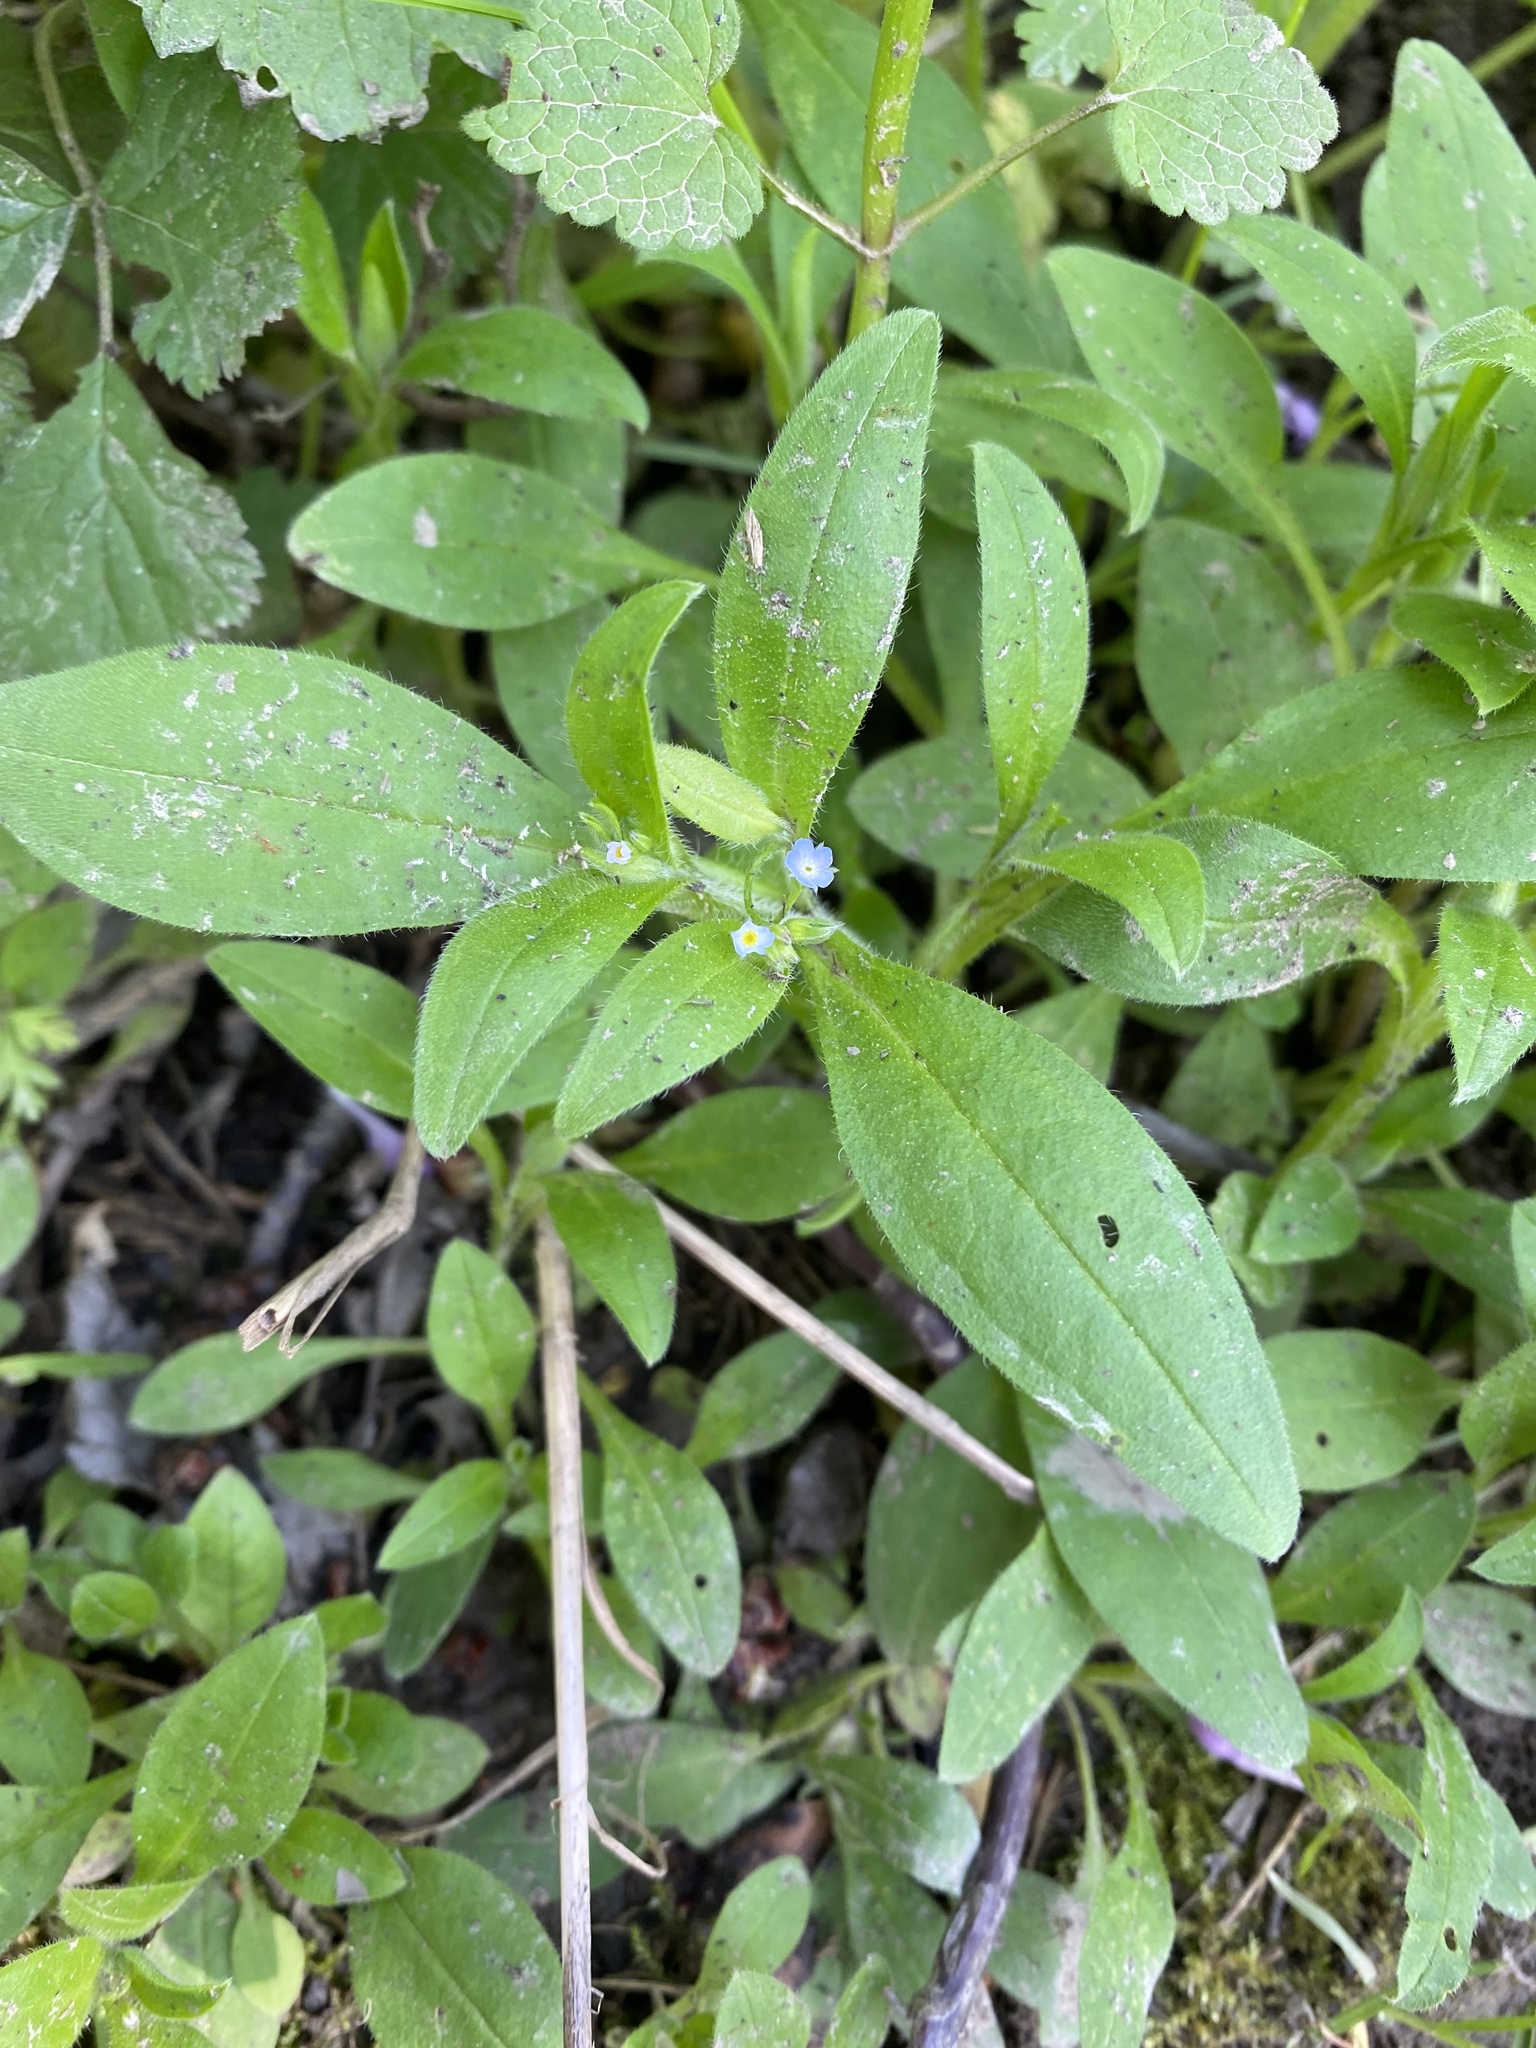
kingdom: Plantae
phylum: Tracheophyta
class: Magnoliopsida
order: Boraginales
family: Boraginaceae
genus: Myosotis
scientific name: Myosotis sparsiflora
